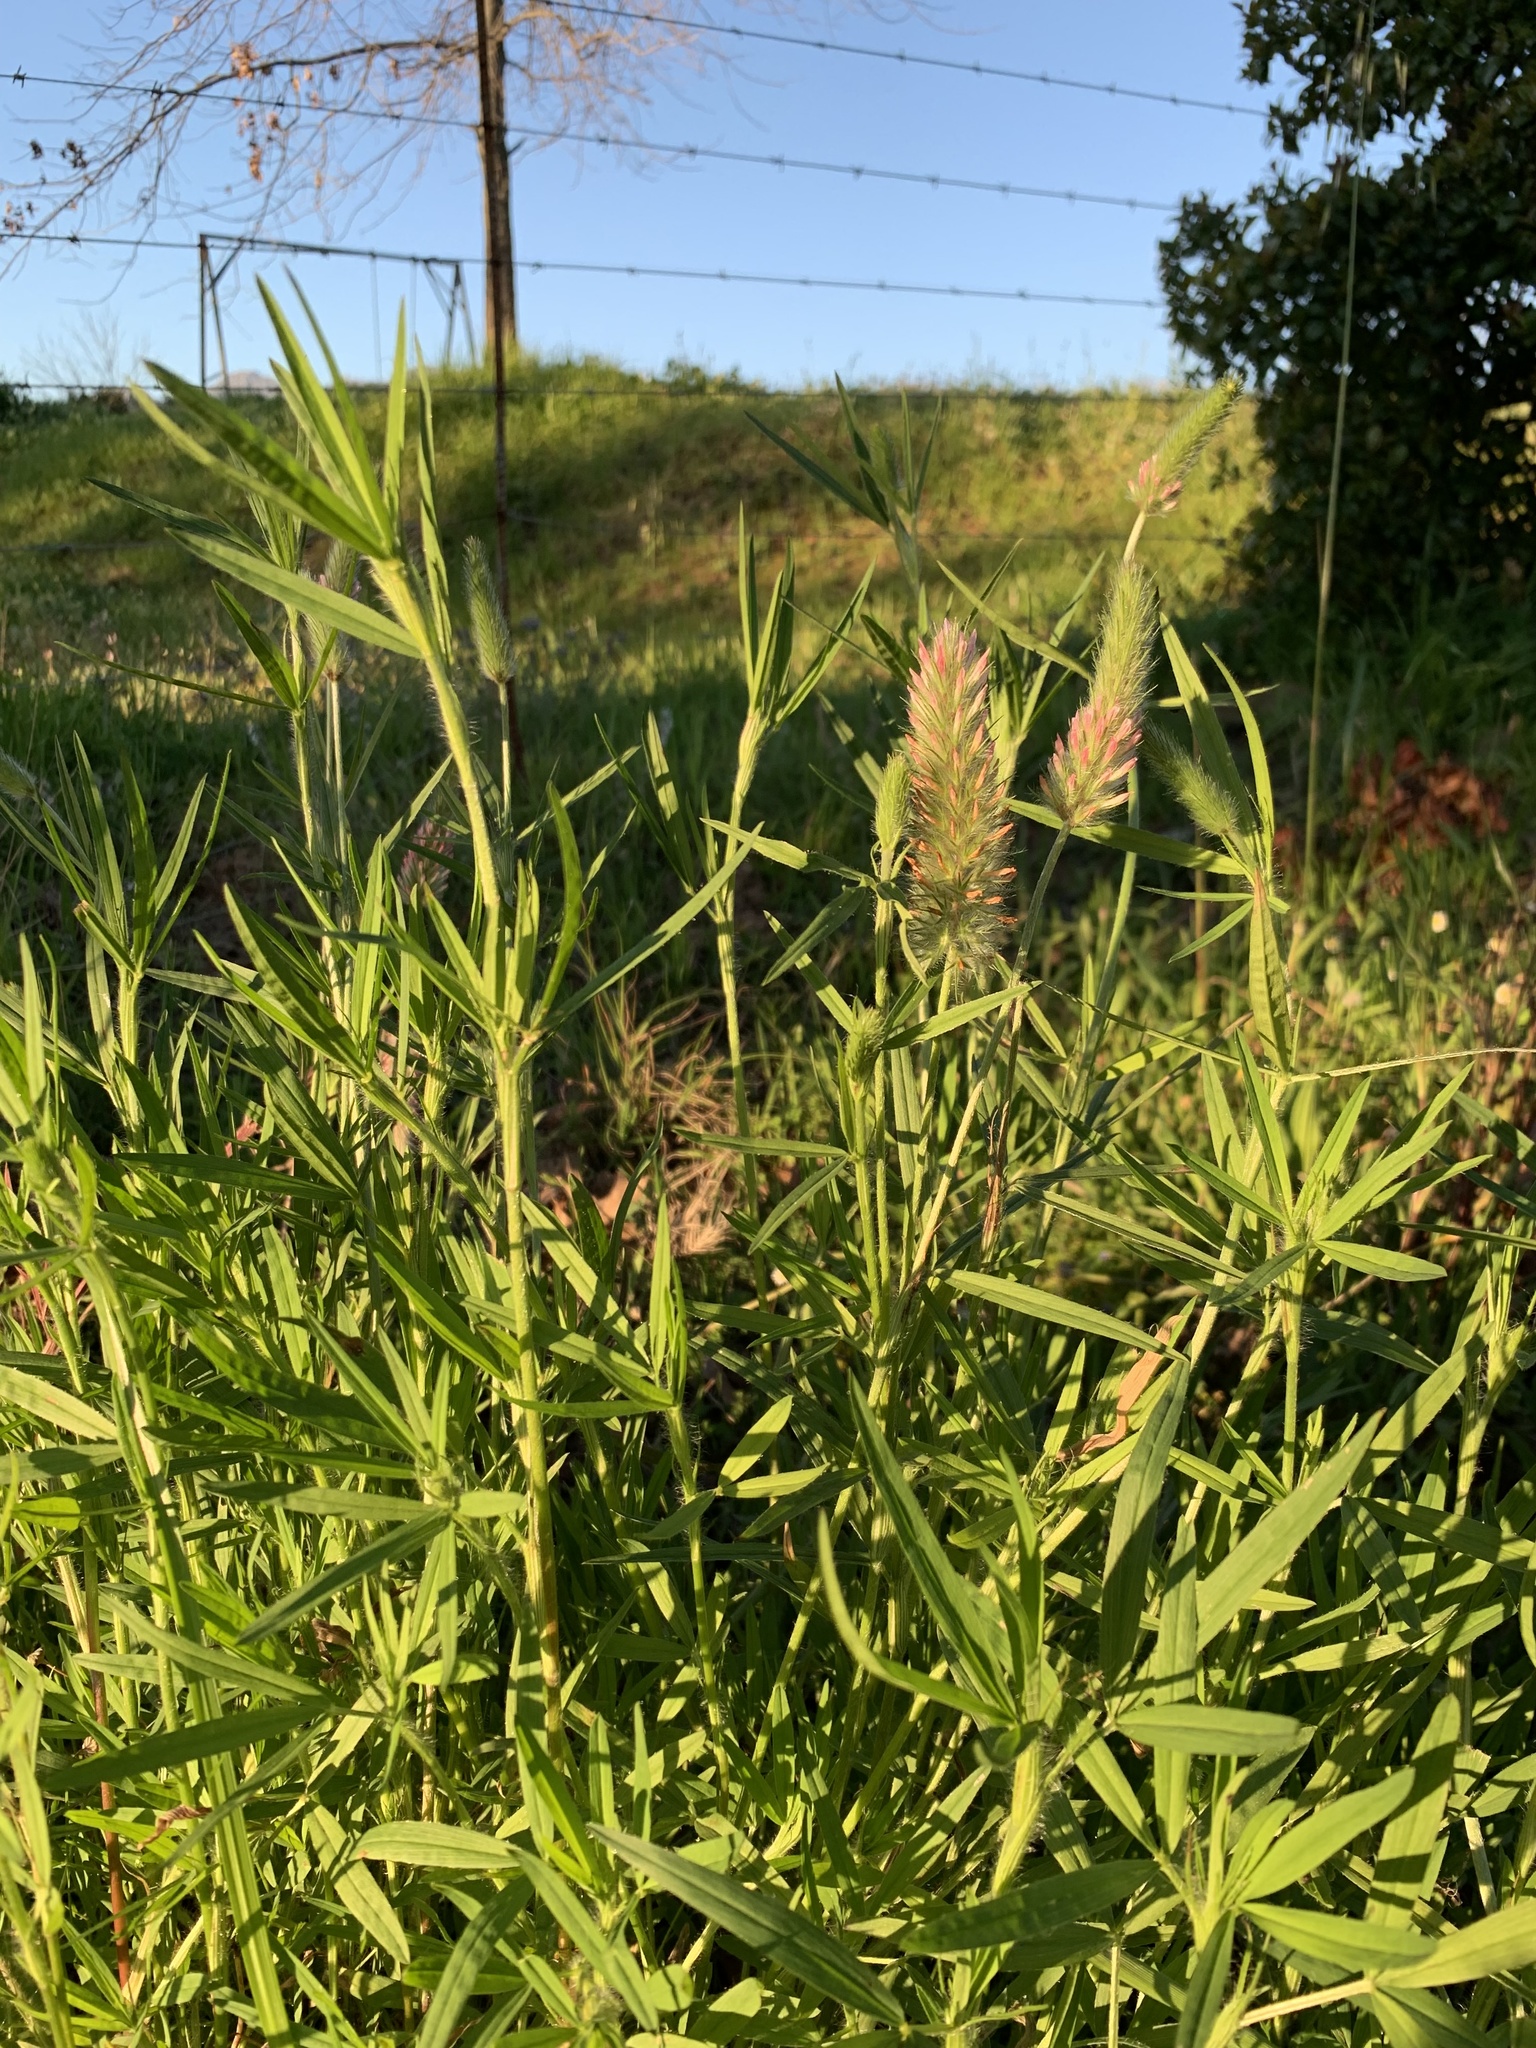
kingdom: Plantae
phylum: Tracheophyta
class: Magnoliopsida
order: Fabales
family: Fabaceae
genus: Trifolium
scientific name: Trifolium angustifolium
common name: Narrow clover
